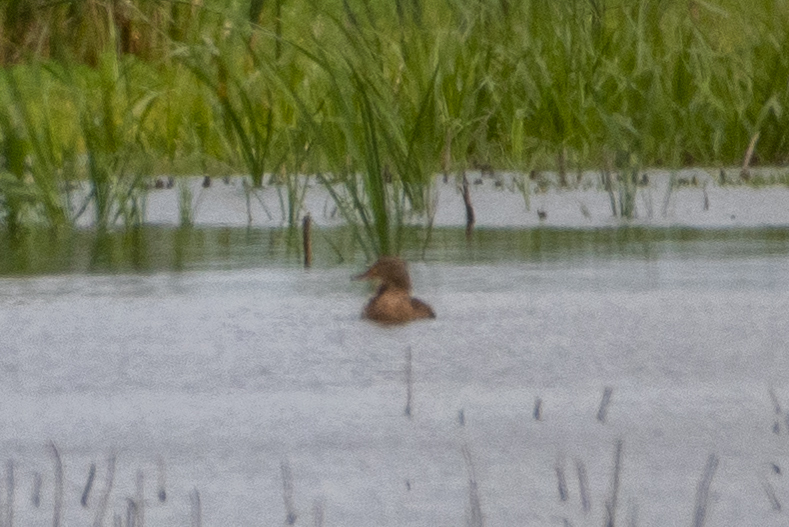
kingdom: Animalia
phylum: Chordata
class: Aves
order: Anseriformes
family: Anatidae
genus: Anas
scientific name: Anas platyrhynchos
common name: Mallard
